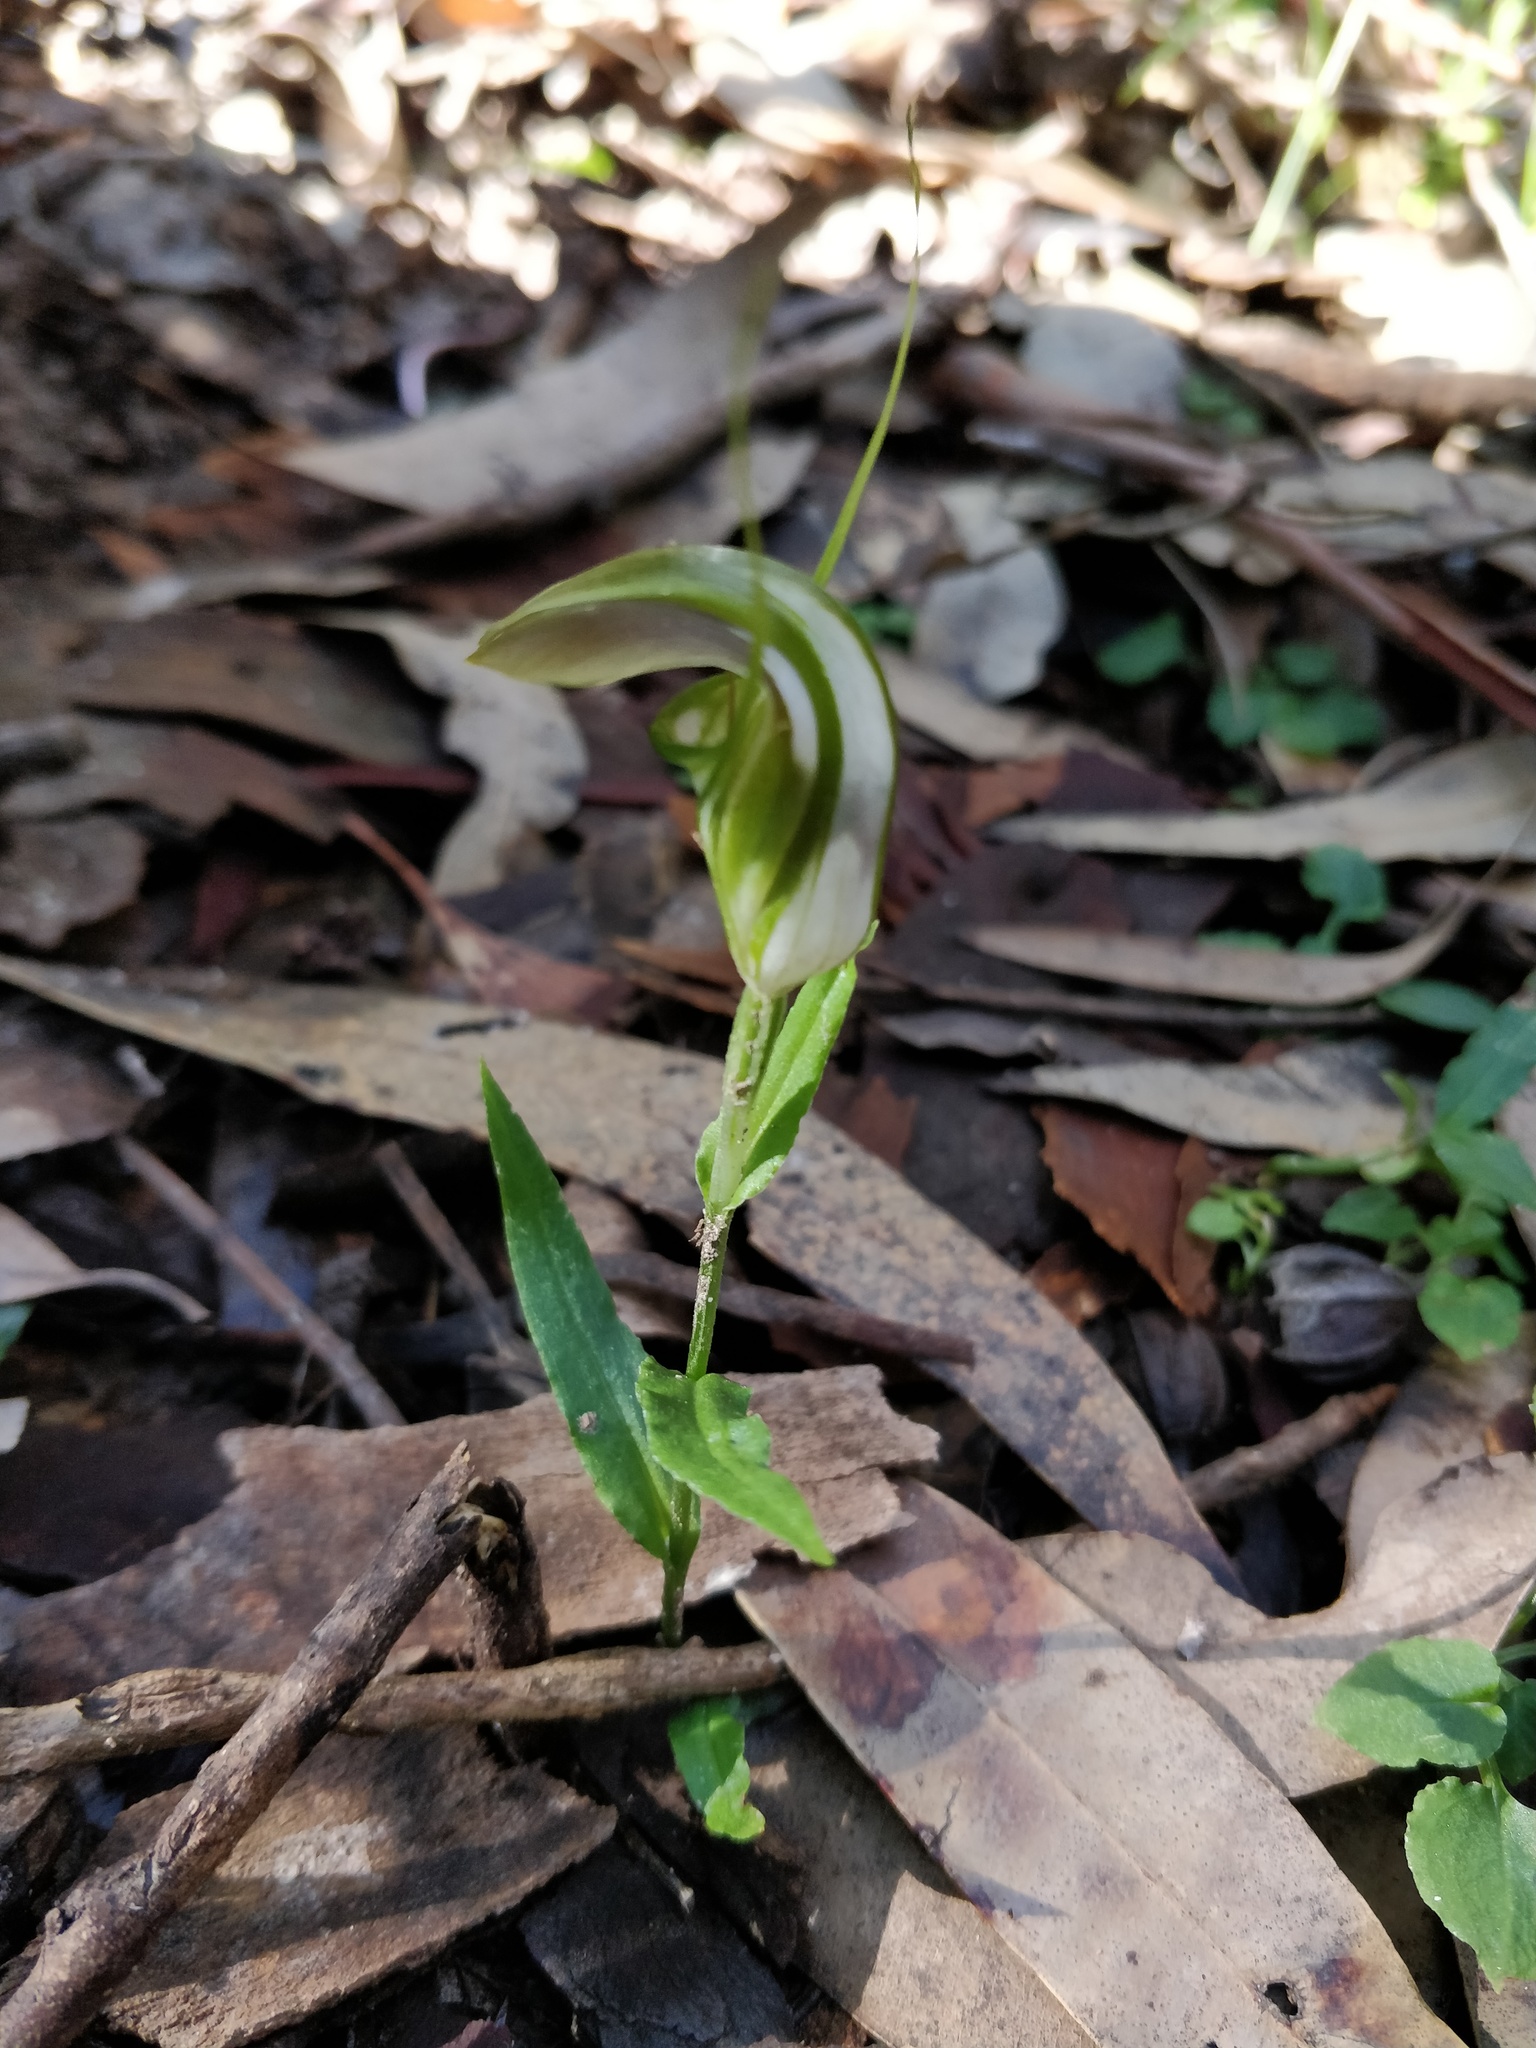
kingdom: Plantae
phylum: Tracheophyta
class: Liliopsida
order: Asparagales
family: Orchidaceae
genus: Pterostylis
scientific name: Pterostylis grandiflora
